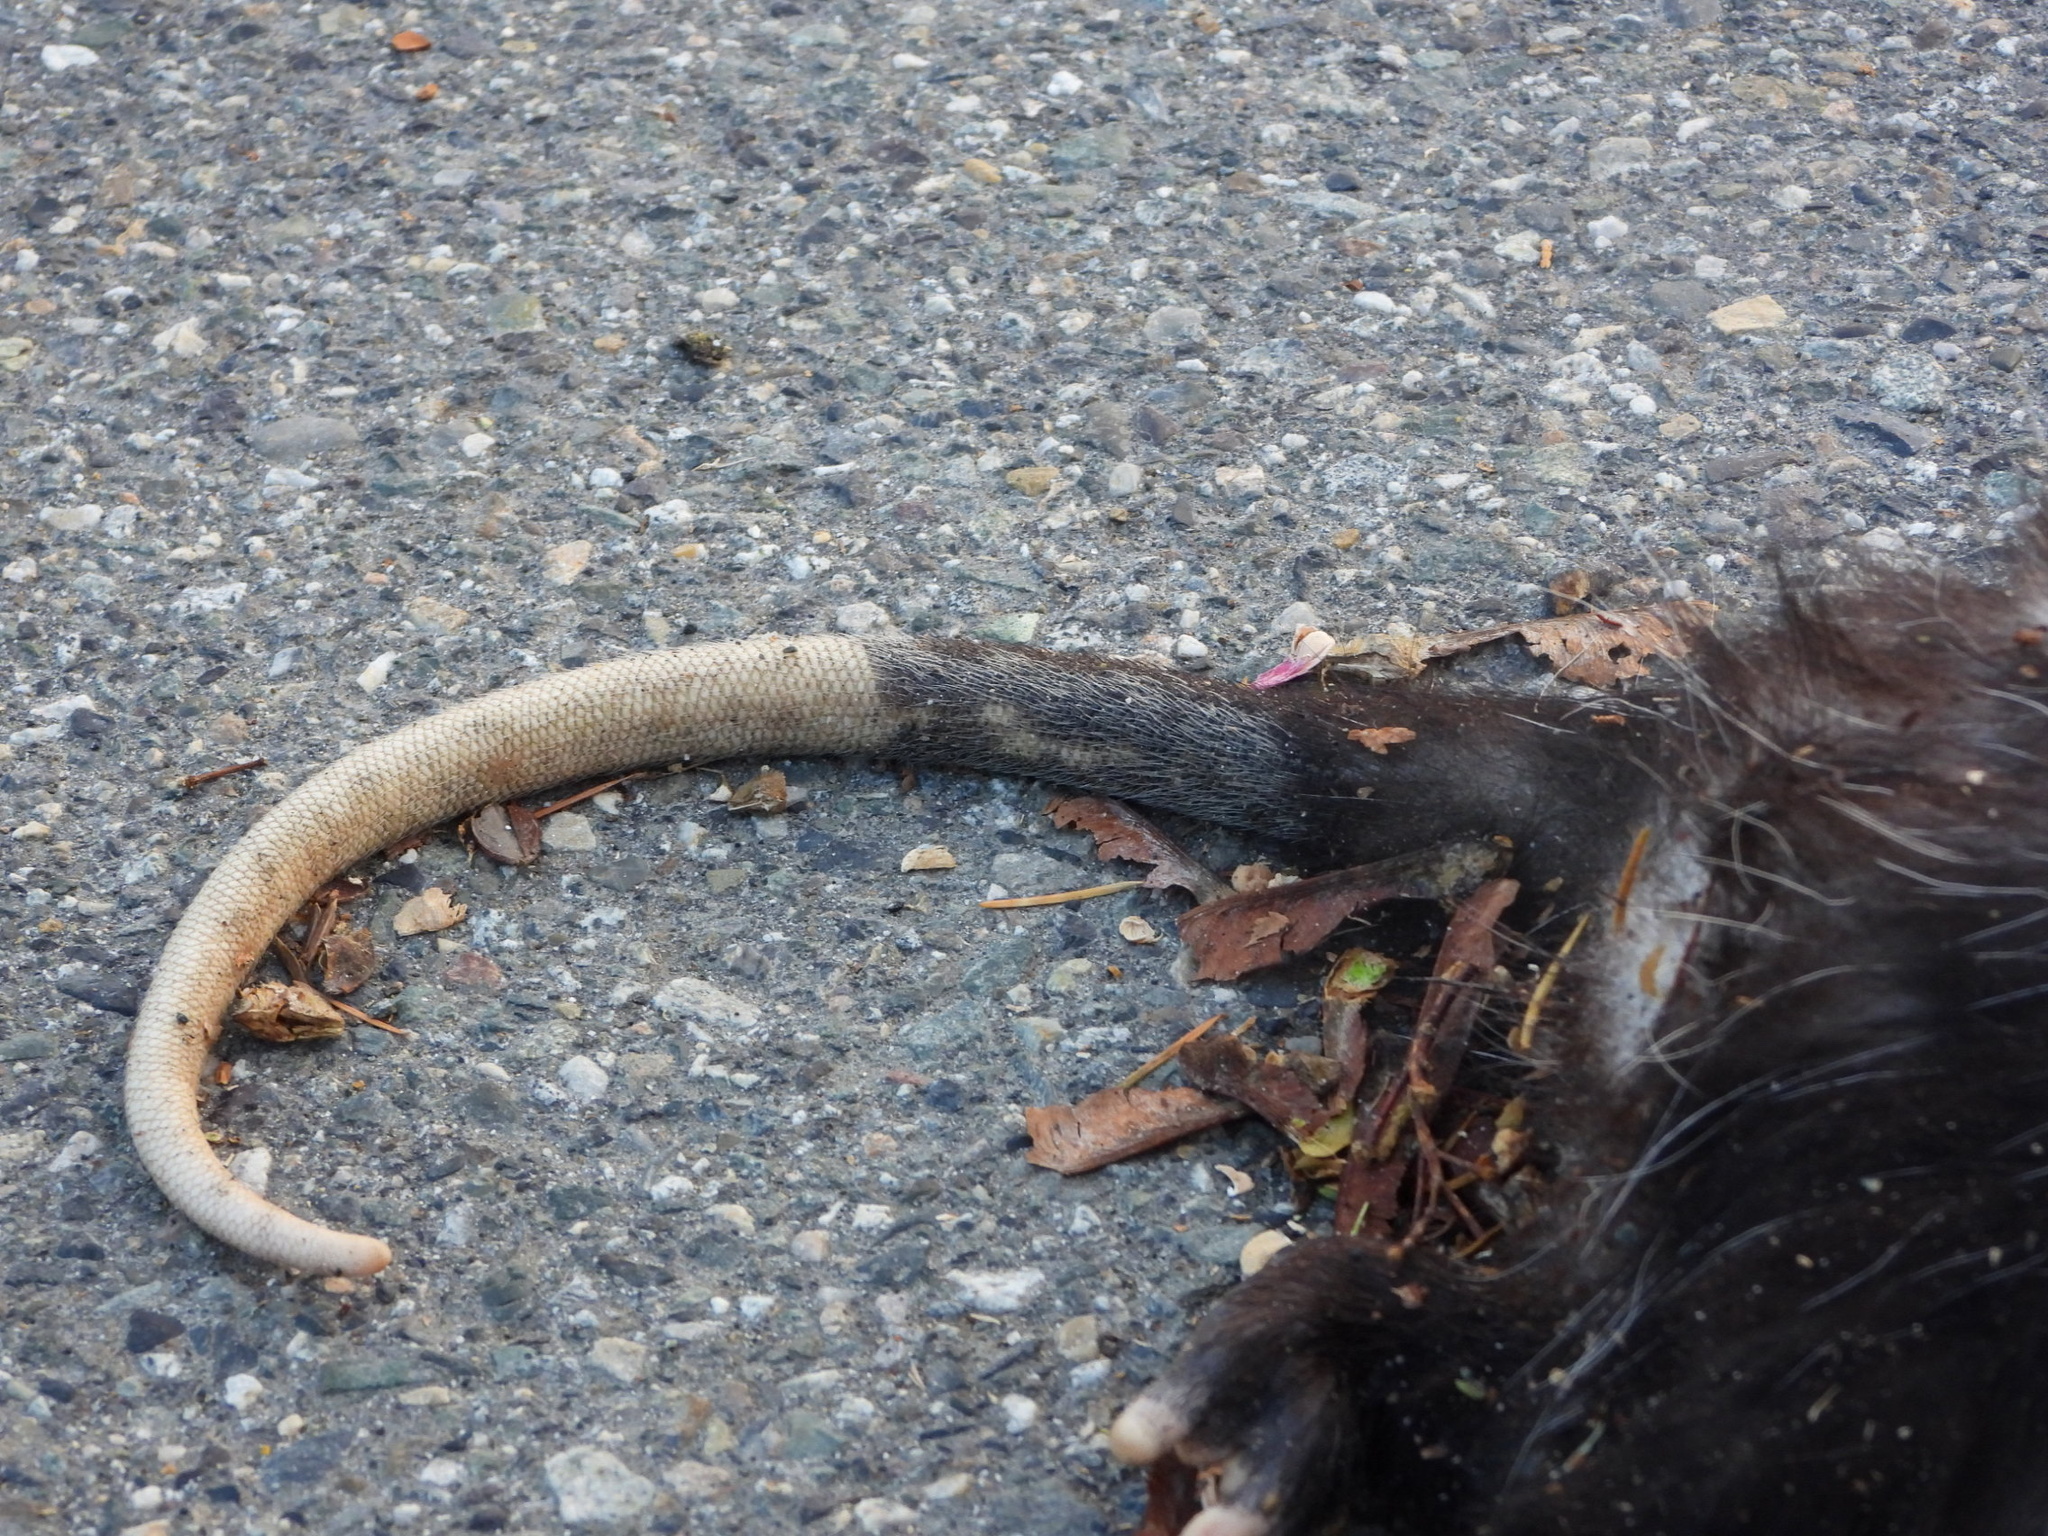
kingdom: Animalia
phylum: Chordata
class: Mammalia
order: Didelphimorphia
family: Didelphidae
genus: Didelphis
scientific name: Didelphis virginiana
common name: Virginia opossum
